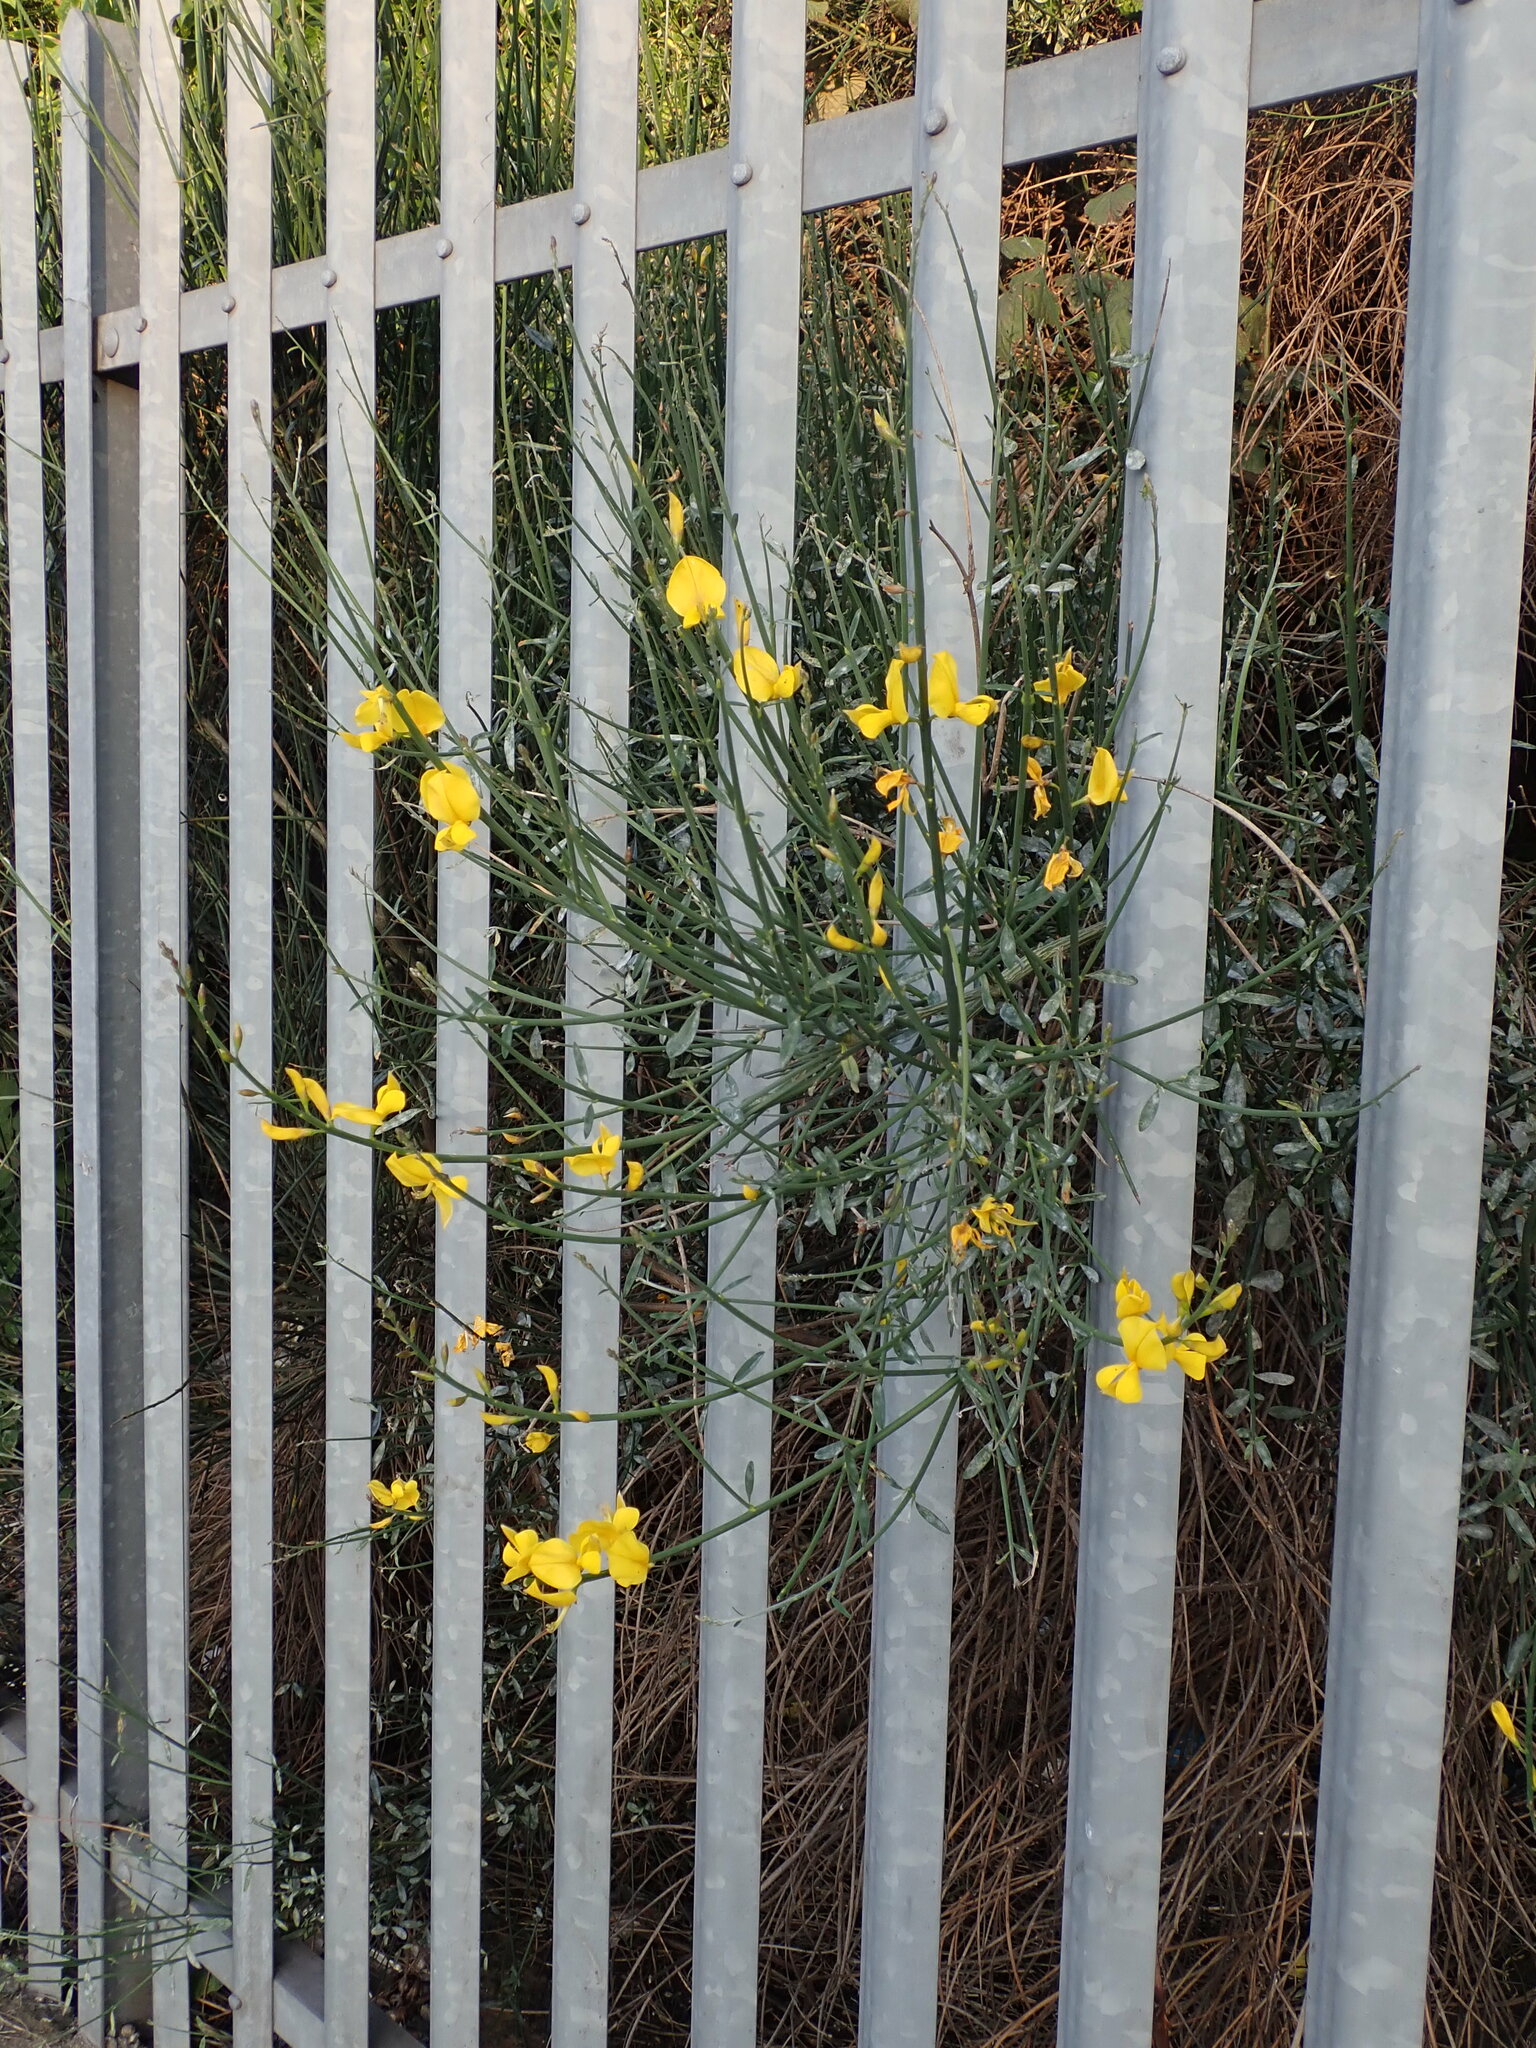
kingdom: Plantae
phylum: Tracheophyta
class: Magnoliopsida
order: Fabales
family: Fabaceae
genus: Spartium
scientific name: Spartium junceum
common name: Spanish broom
